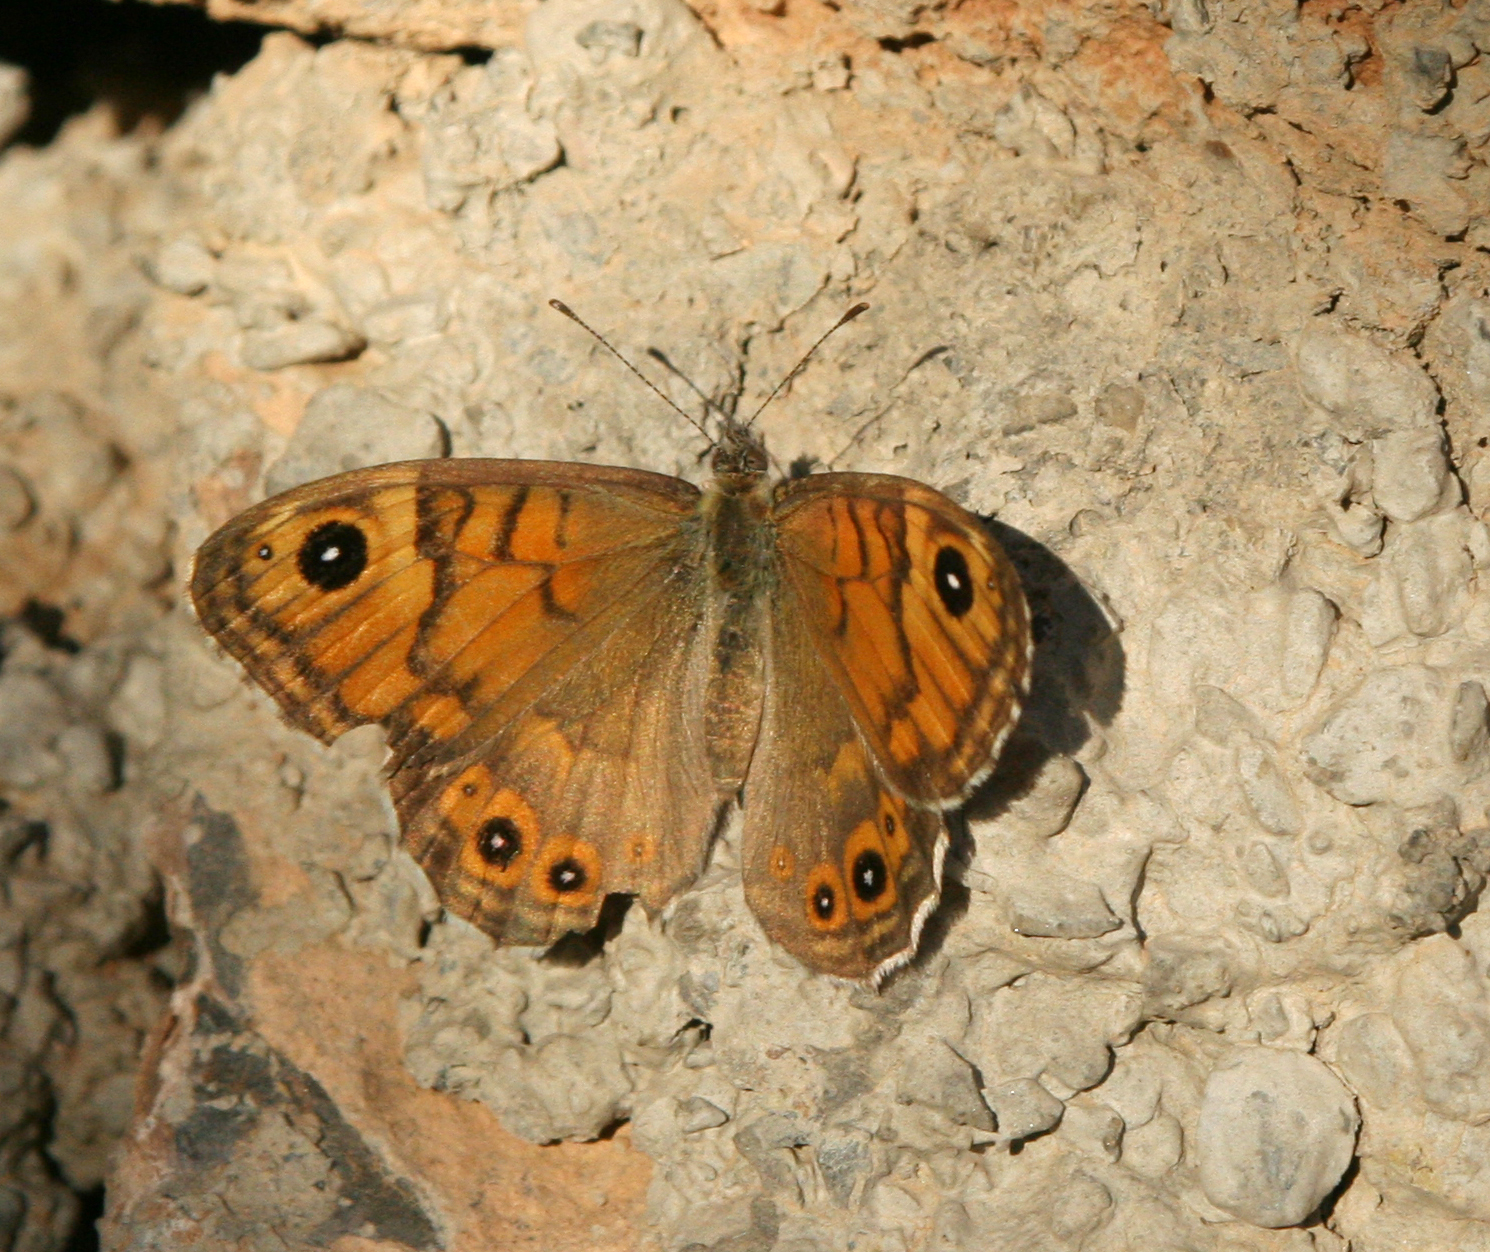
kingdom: Animalia
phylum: Arthropoda
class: Insecta
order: Lepidoptera
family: Nymphalidae
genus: Pararge
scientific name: Pararge Lasiommata megera
